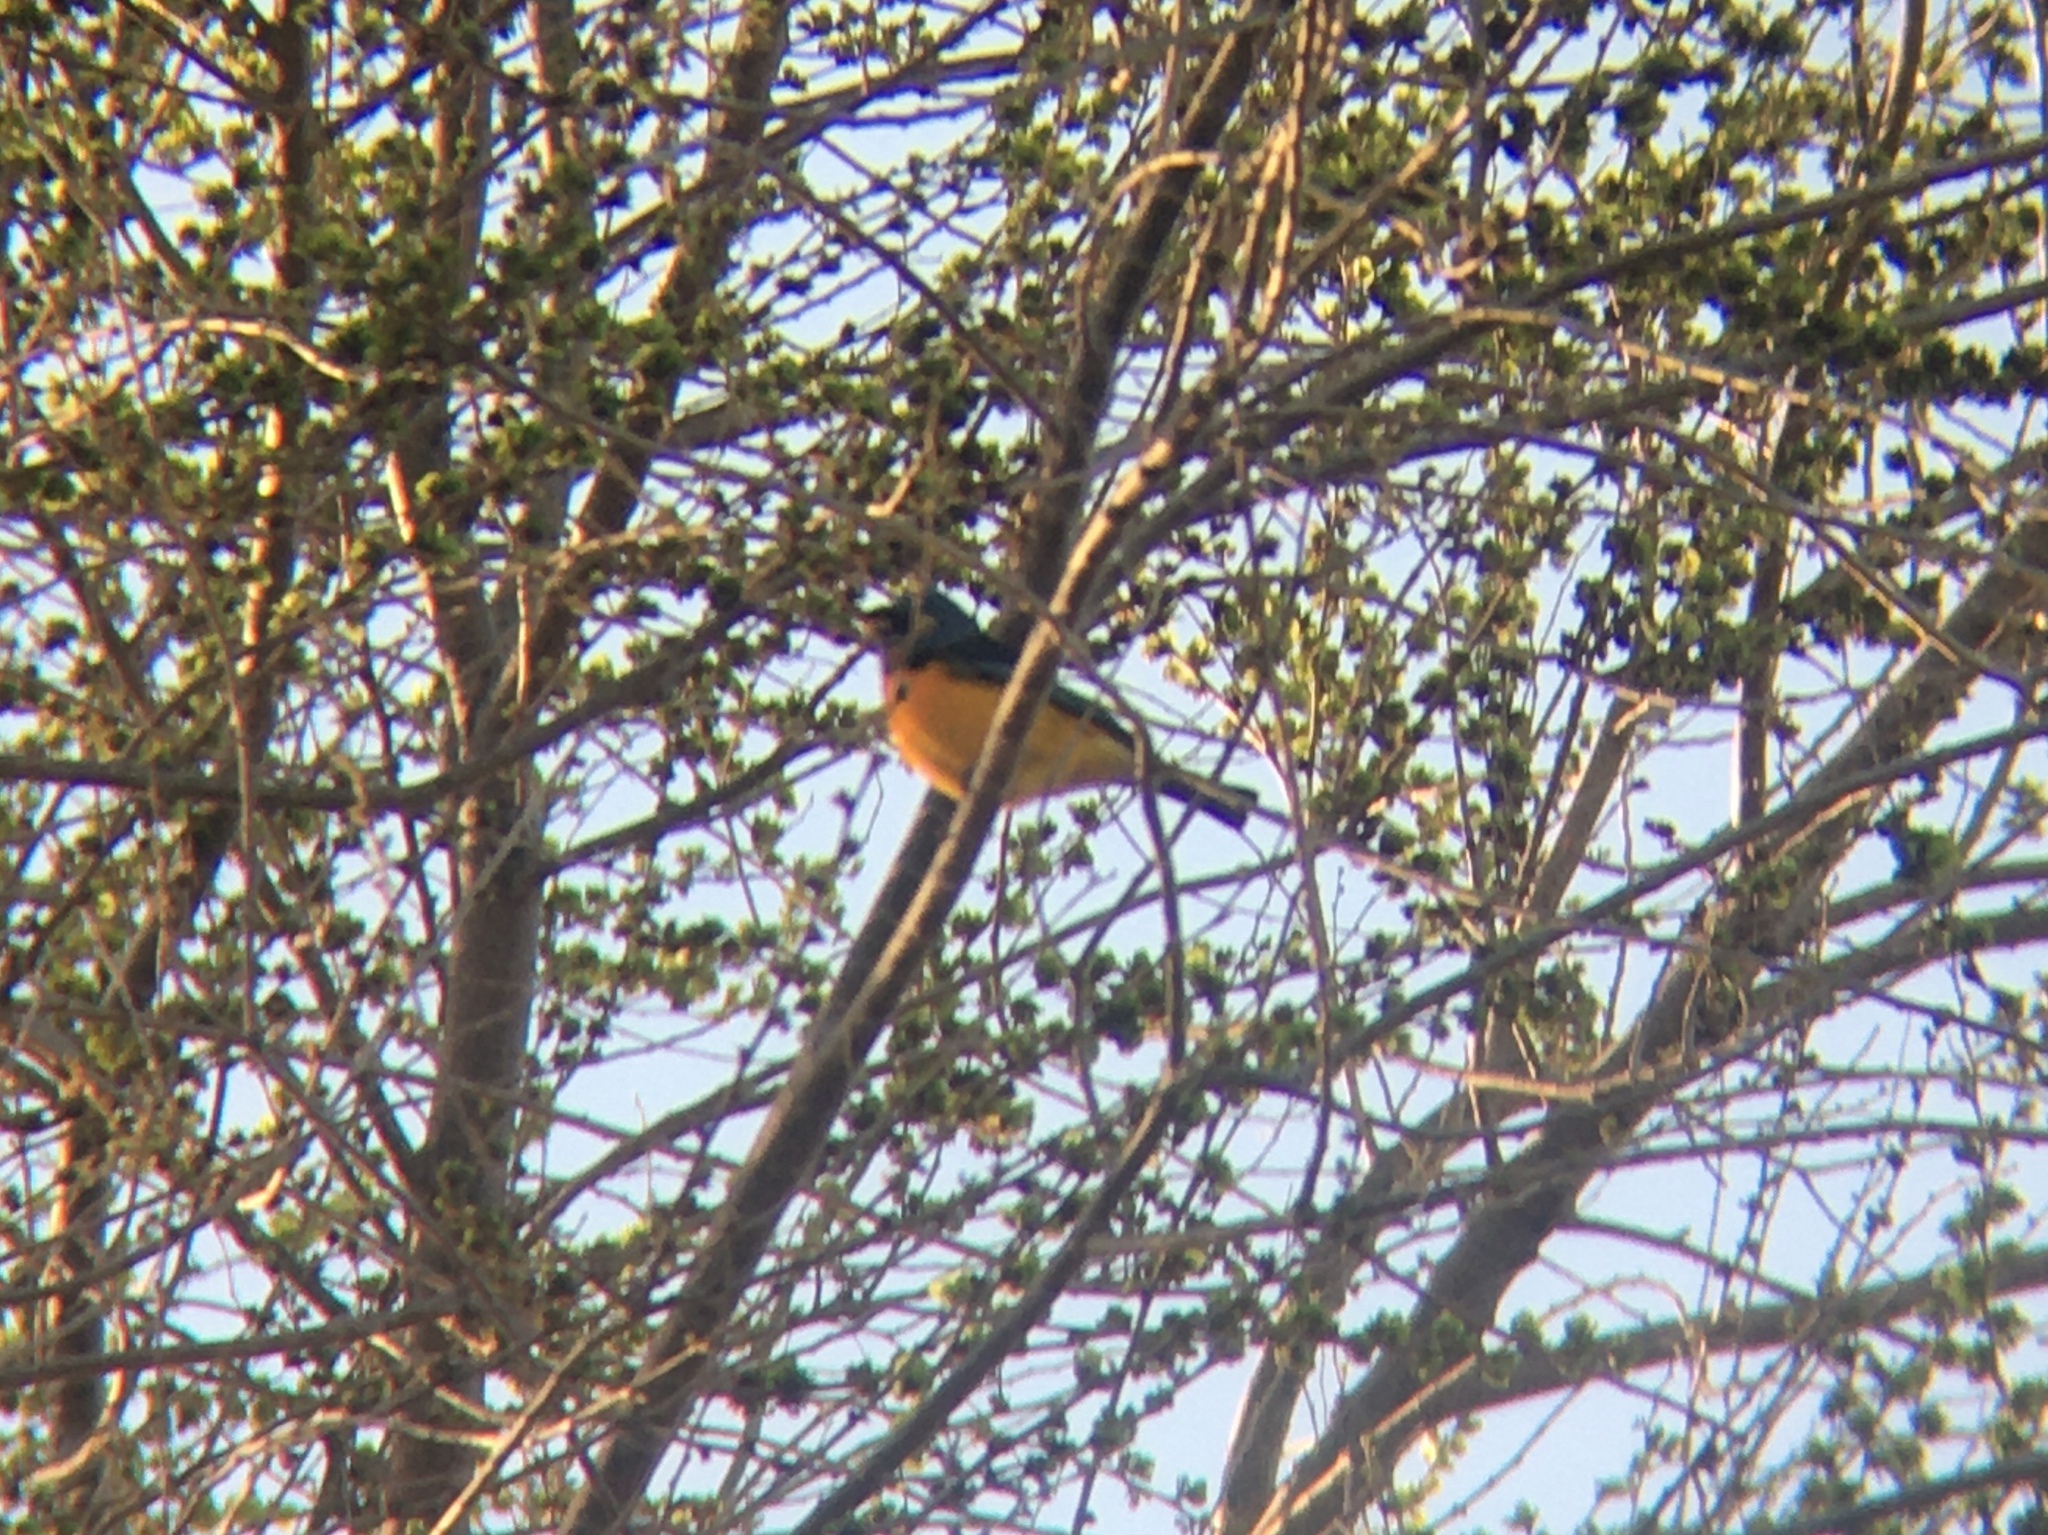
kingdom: Animalia
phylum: Chordata
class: Aves
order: Passeriformes
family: Thraupidae
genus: Rauenia
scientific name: Rauenia bonariensis
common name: Blue-and-yellow tanager
